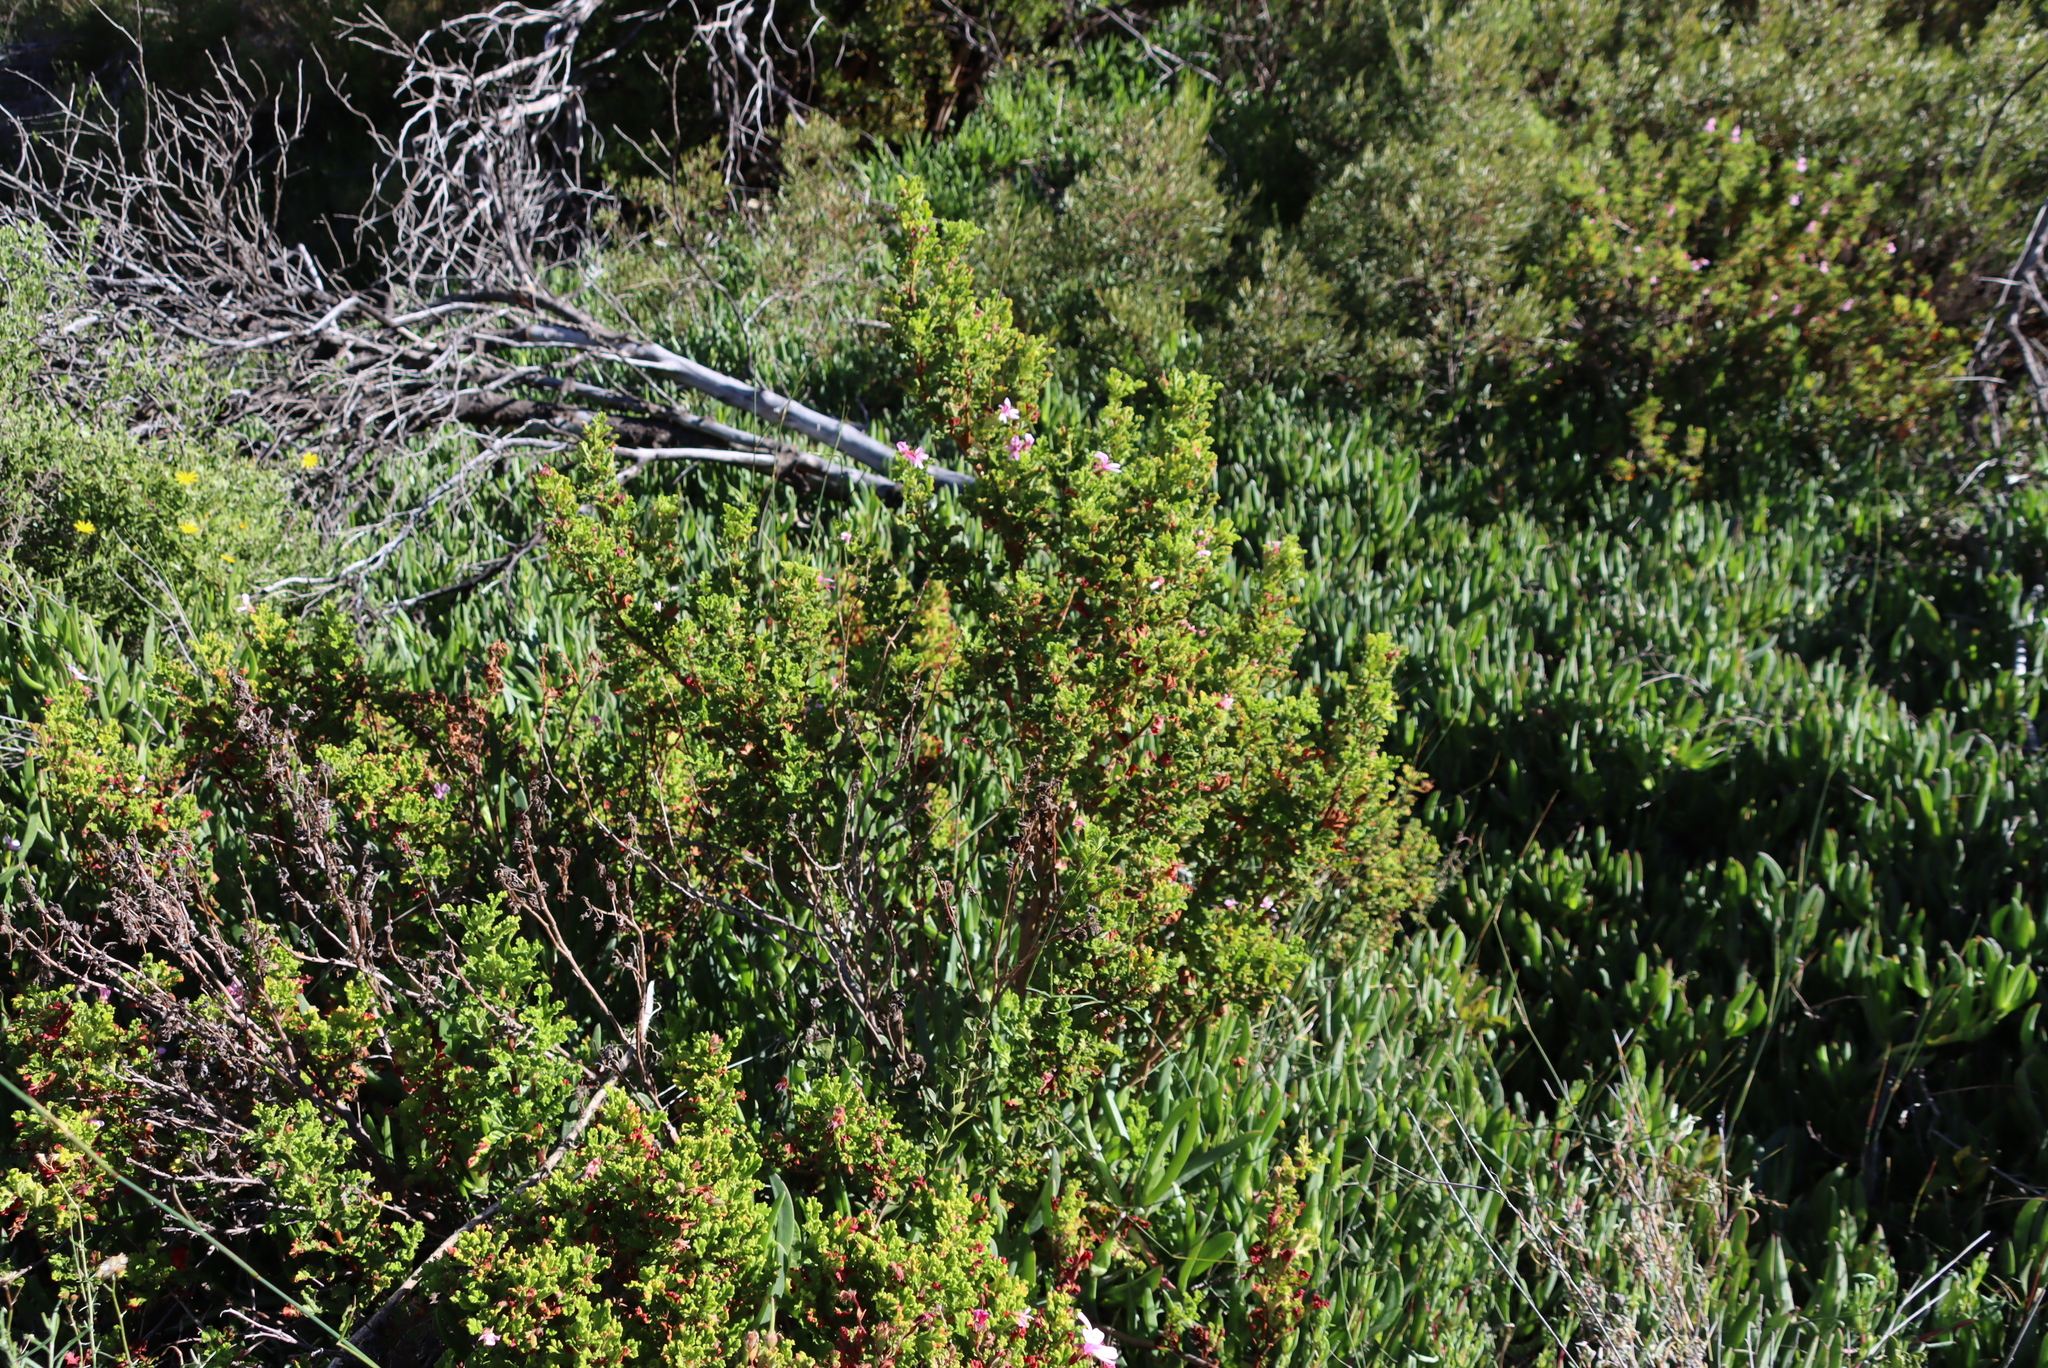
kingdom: Plantae
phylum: Tracheophyta
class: Magnoliopsida
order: Geraniales
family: Geraniaceae
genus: Pelargonium
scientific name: Pelargonium panduriforme
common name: Oakleaf garden geranium
